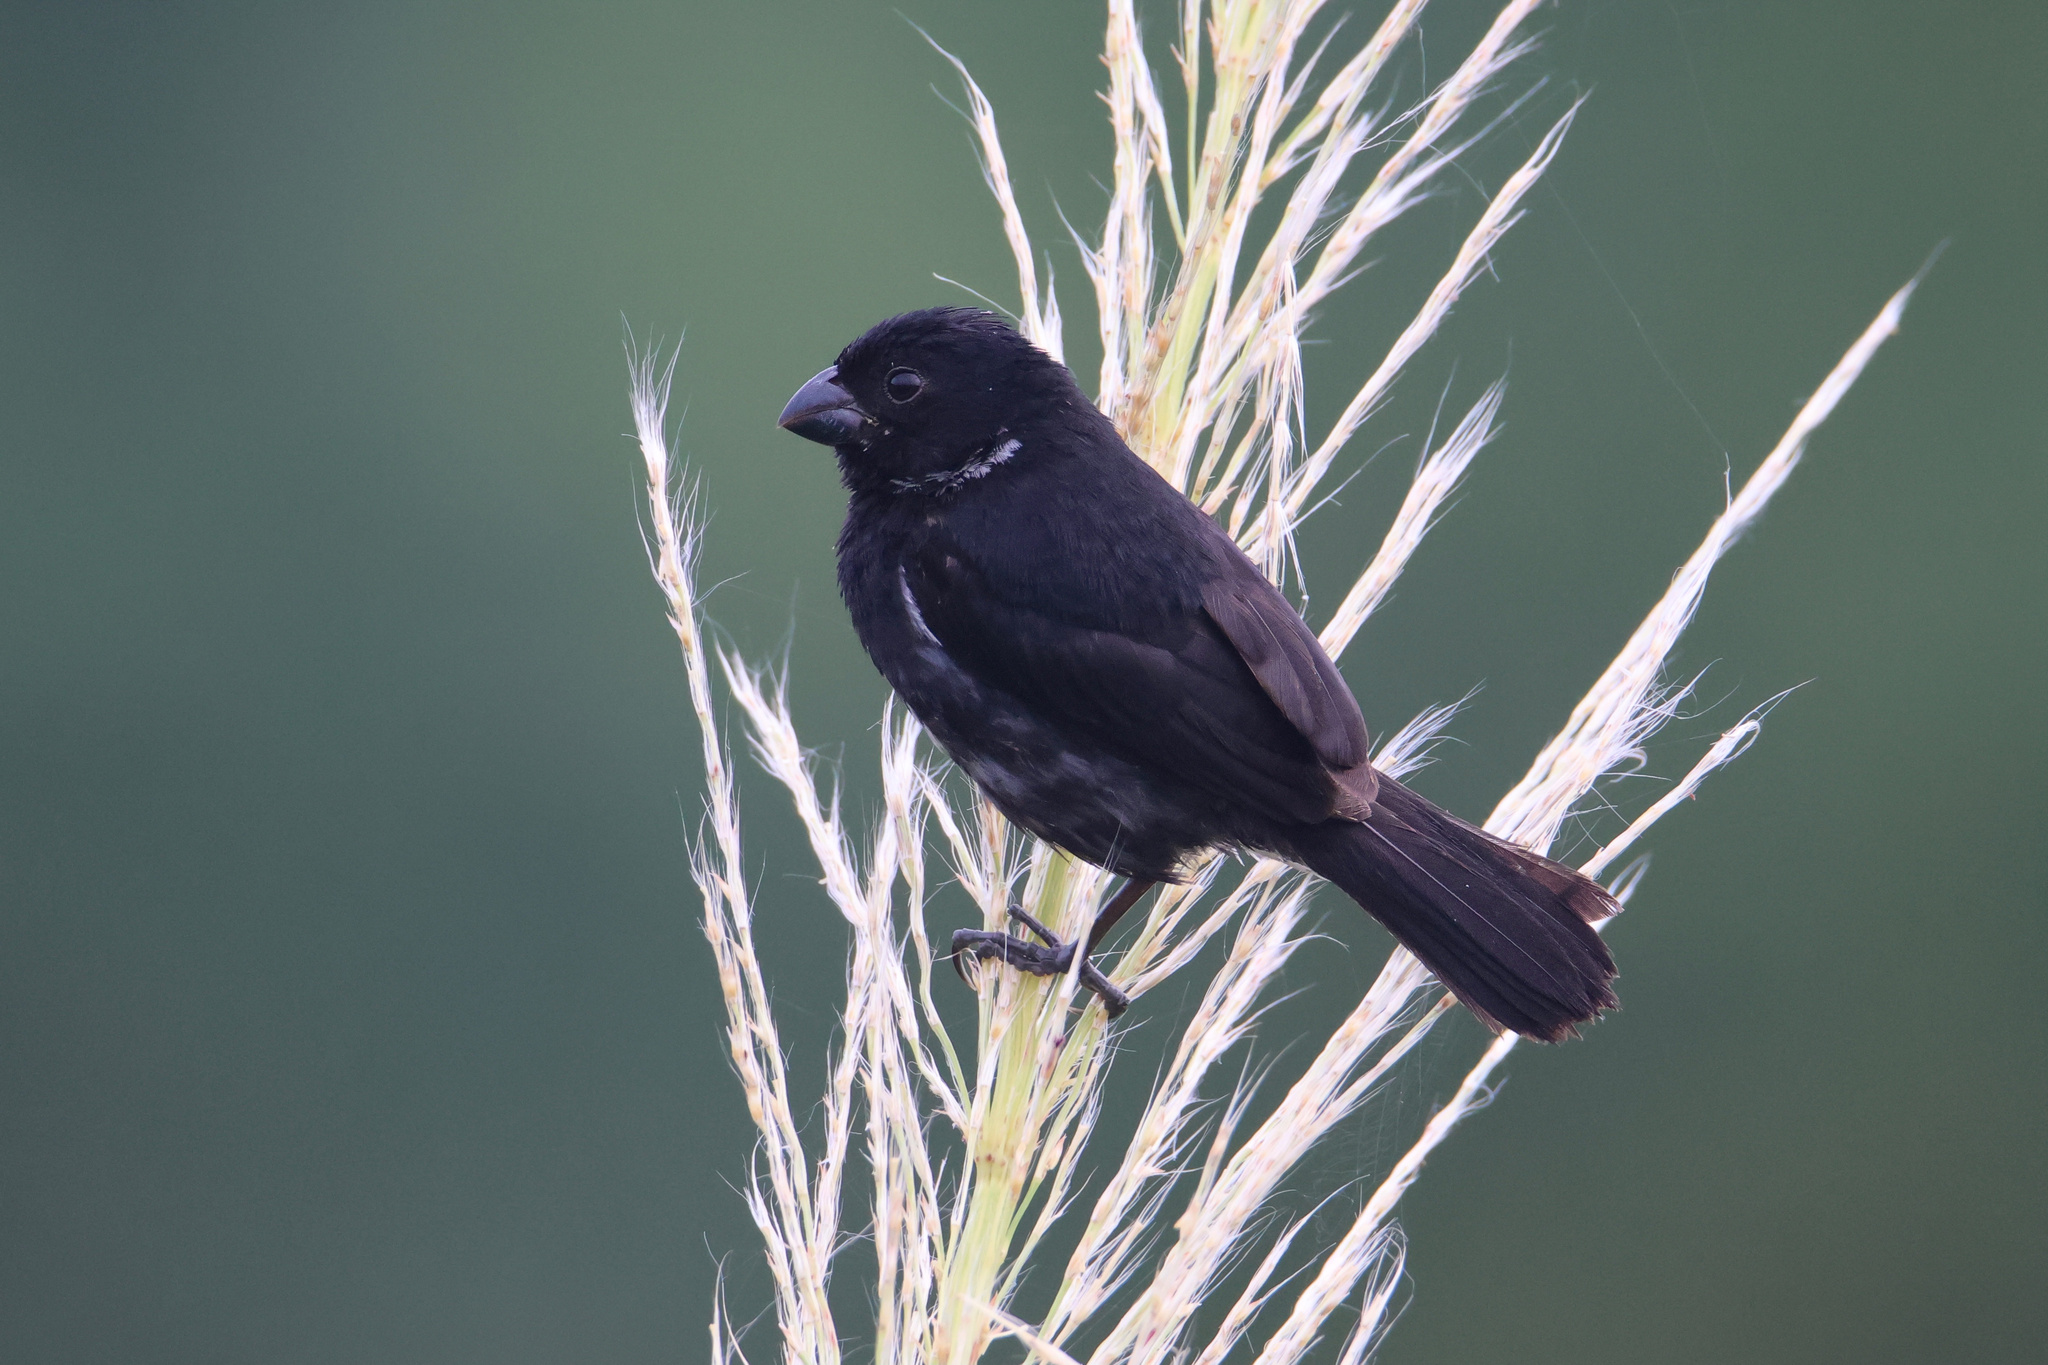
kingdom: Animalia
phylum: Chordata
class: Aves
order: Passeriformes
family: Thraupidae
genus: Sporophila
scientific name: Sporophila corvina
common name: Variable seedeater
